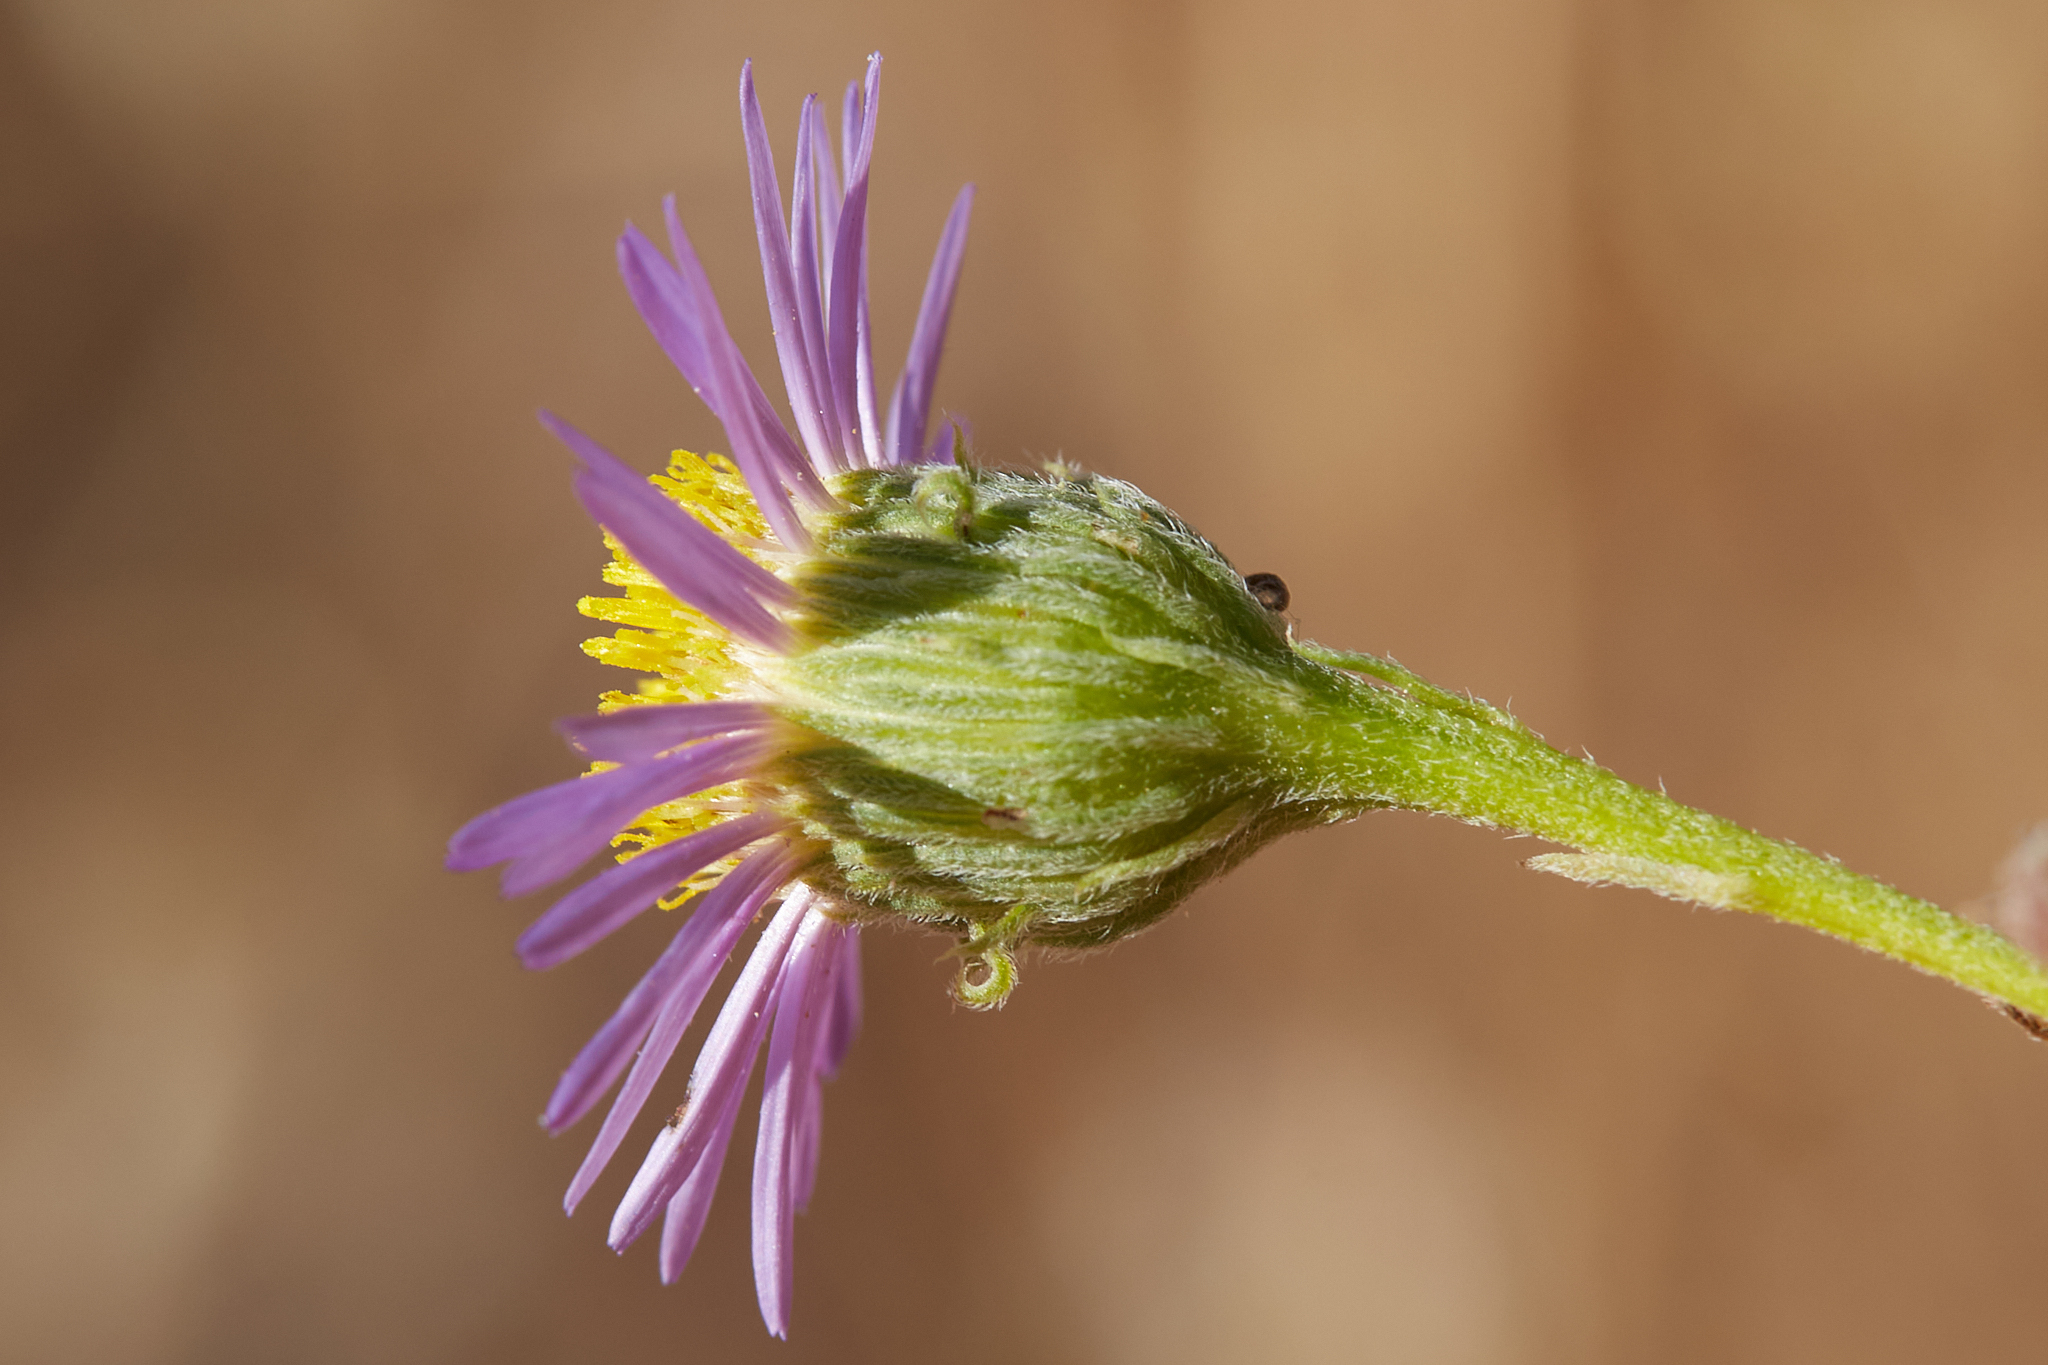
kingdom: Plantae
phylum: Tracheophyta
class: Magnoliopsida
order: Asterales
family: Asteraceae
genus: Erigeron
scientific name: Erigeron foliosus
